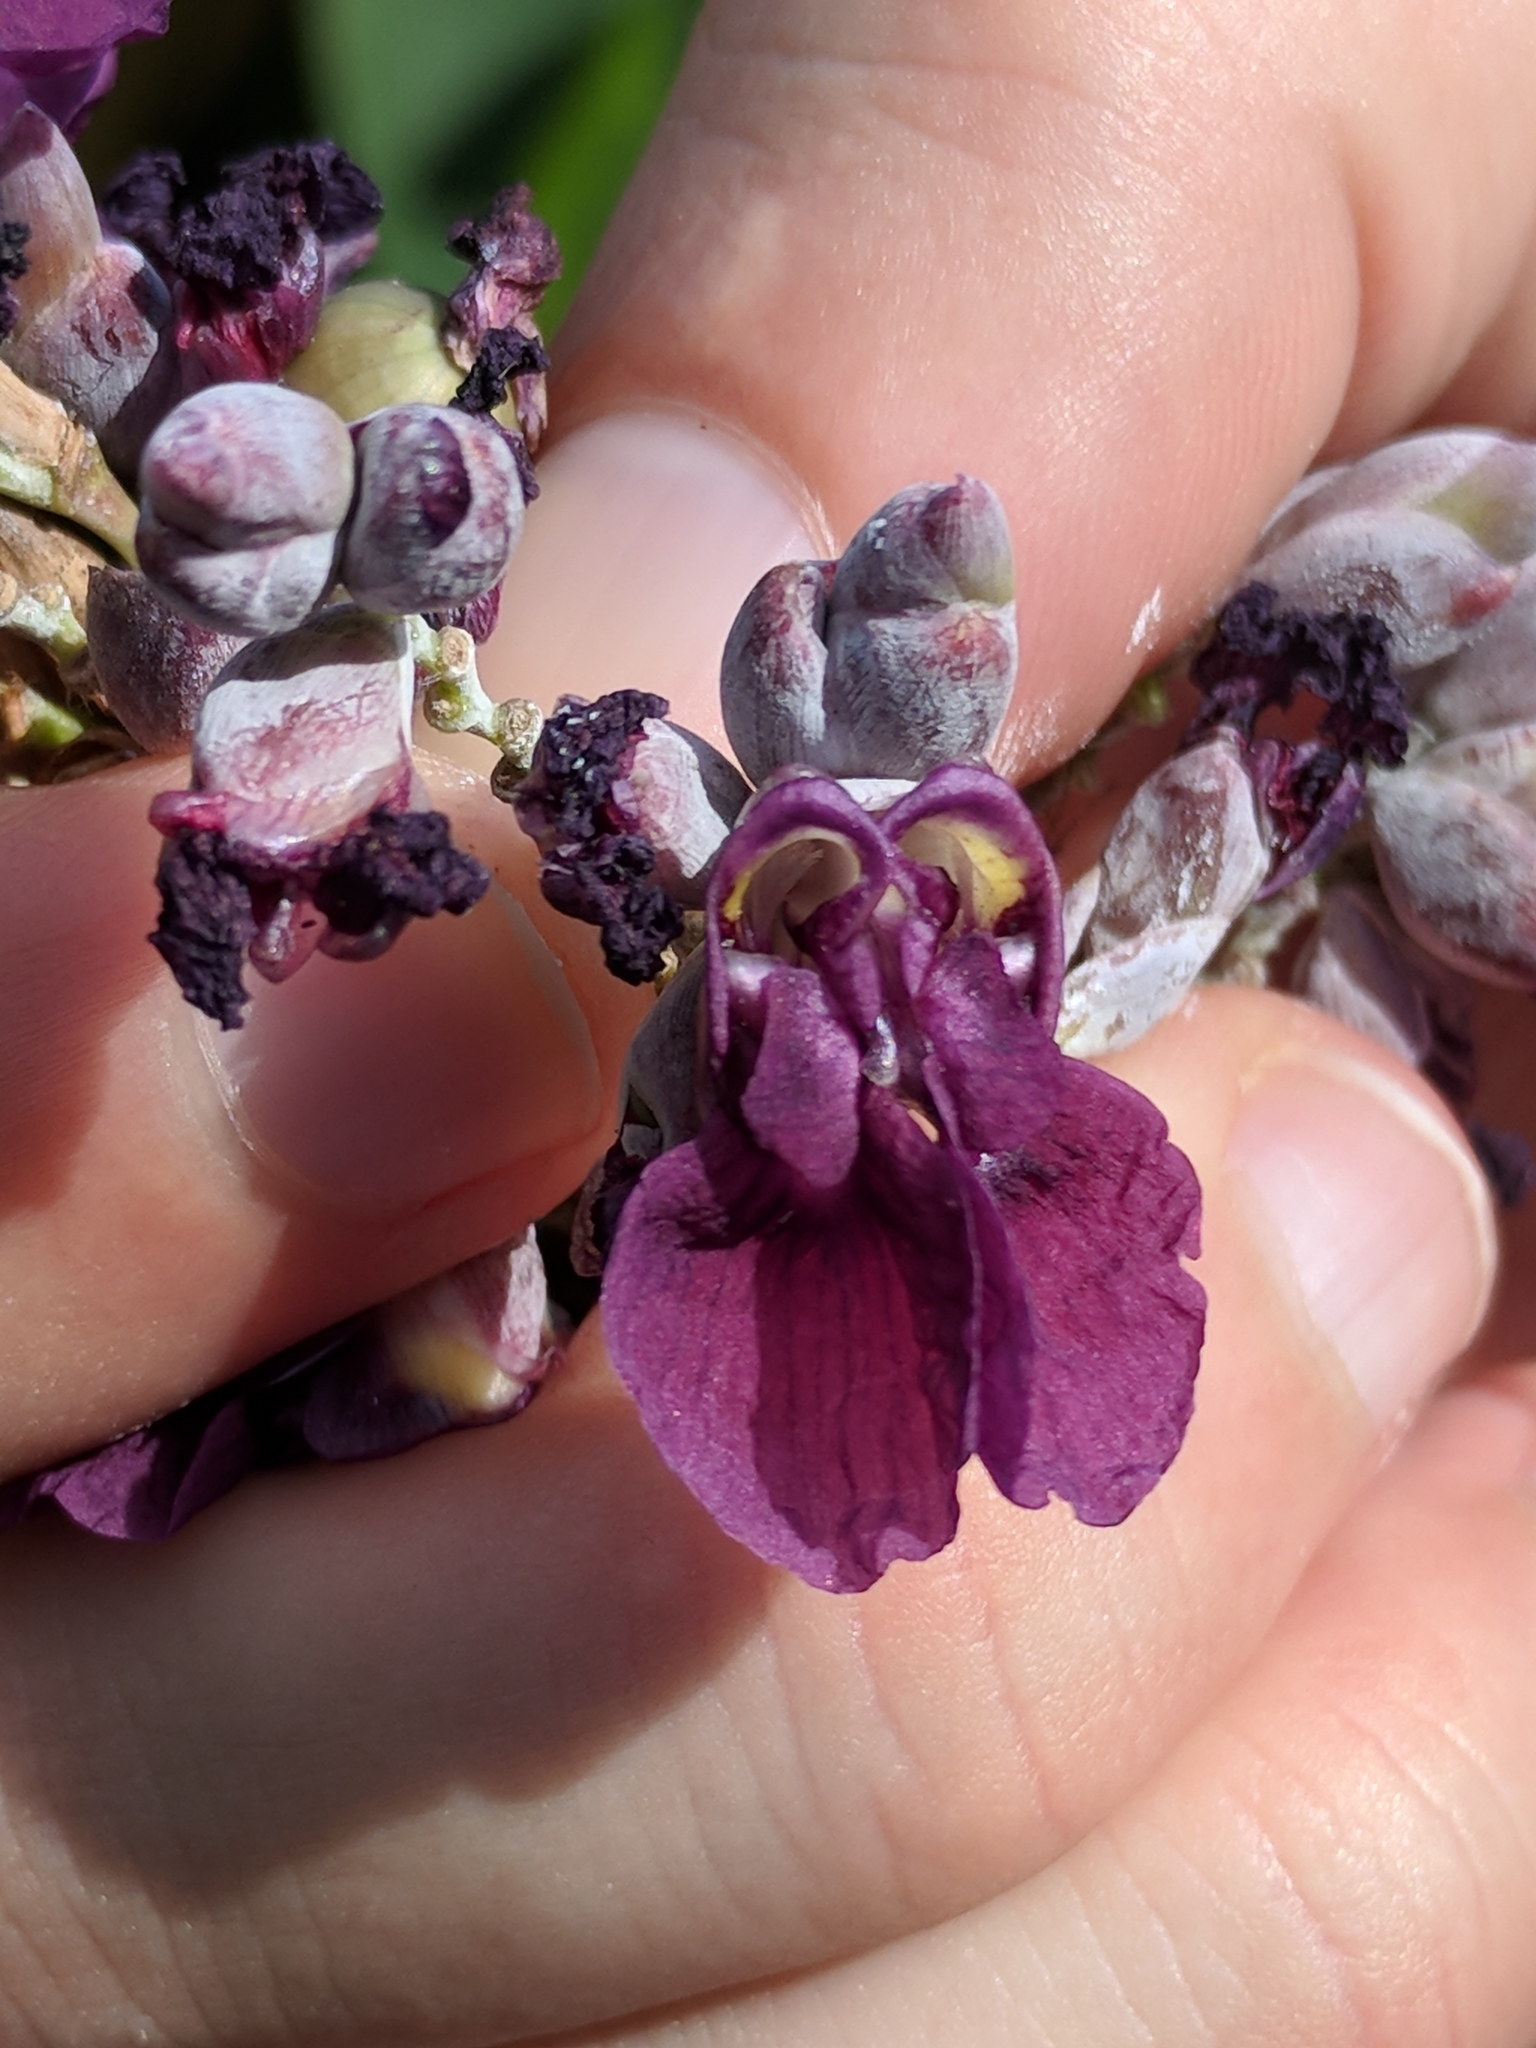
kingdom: Plantae
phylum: Tracheophyta
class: Liliopsida
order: Zingiberales
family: Marantaceae
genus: Thalia
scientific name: Thalia dealbata
